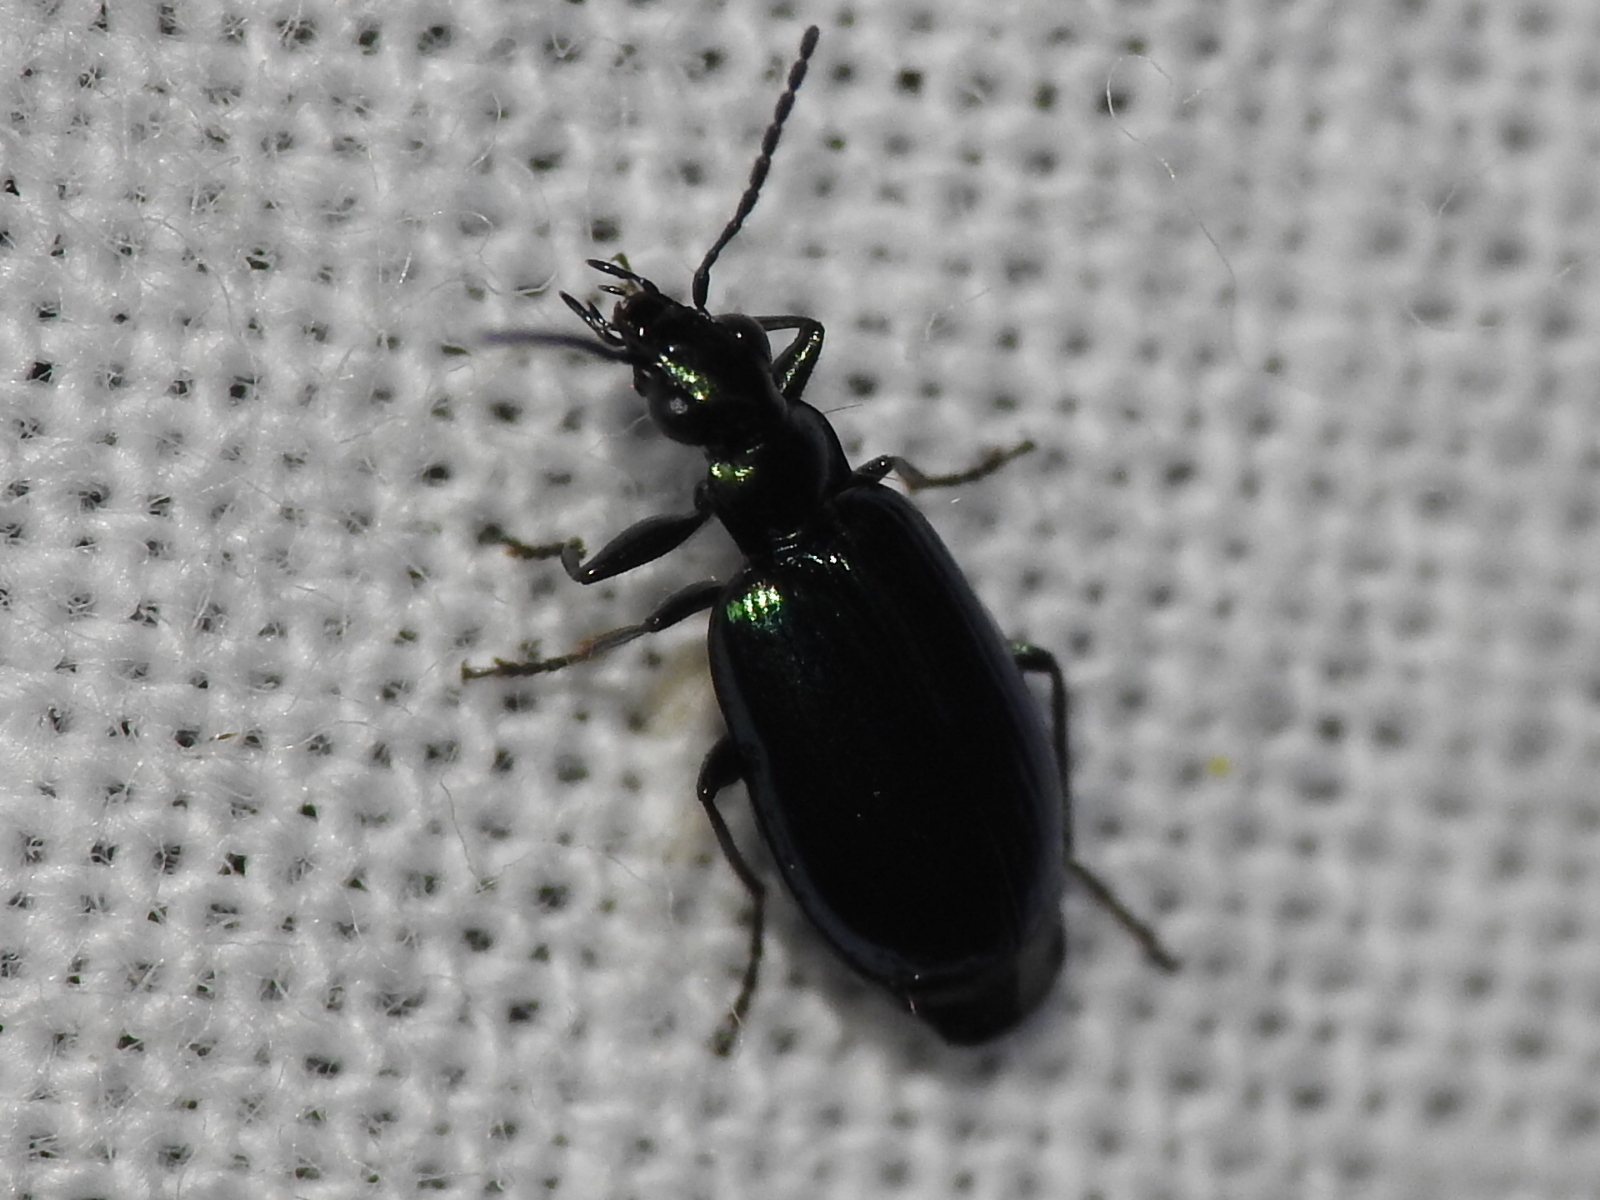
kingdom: Animalia
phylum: Arthropoda
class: Insecta
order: Coleoptera
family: Carabidae
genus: Lebia
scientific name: Lebia viridis
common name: Flower lebia beetle
